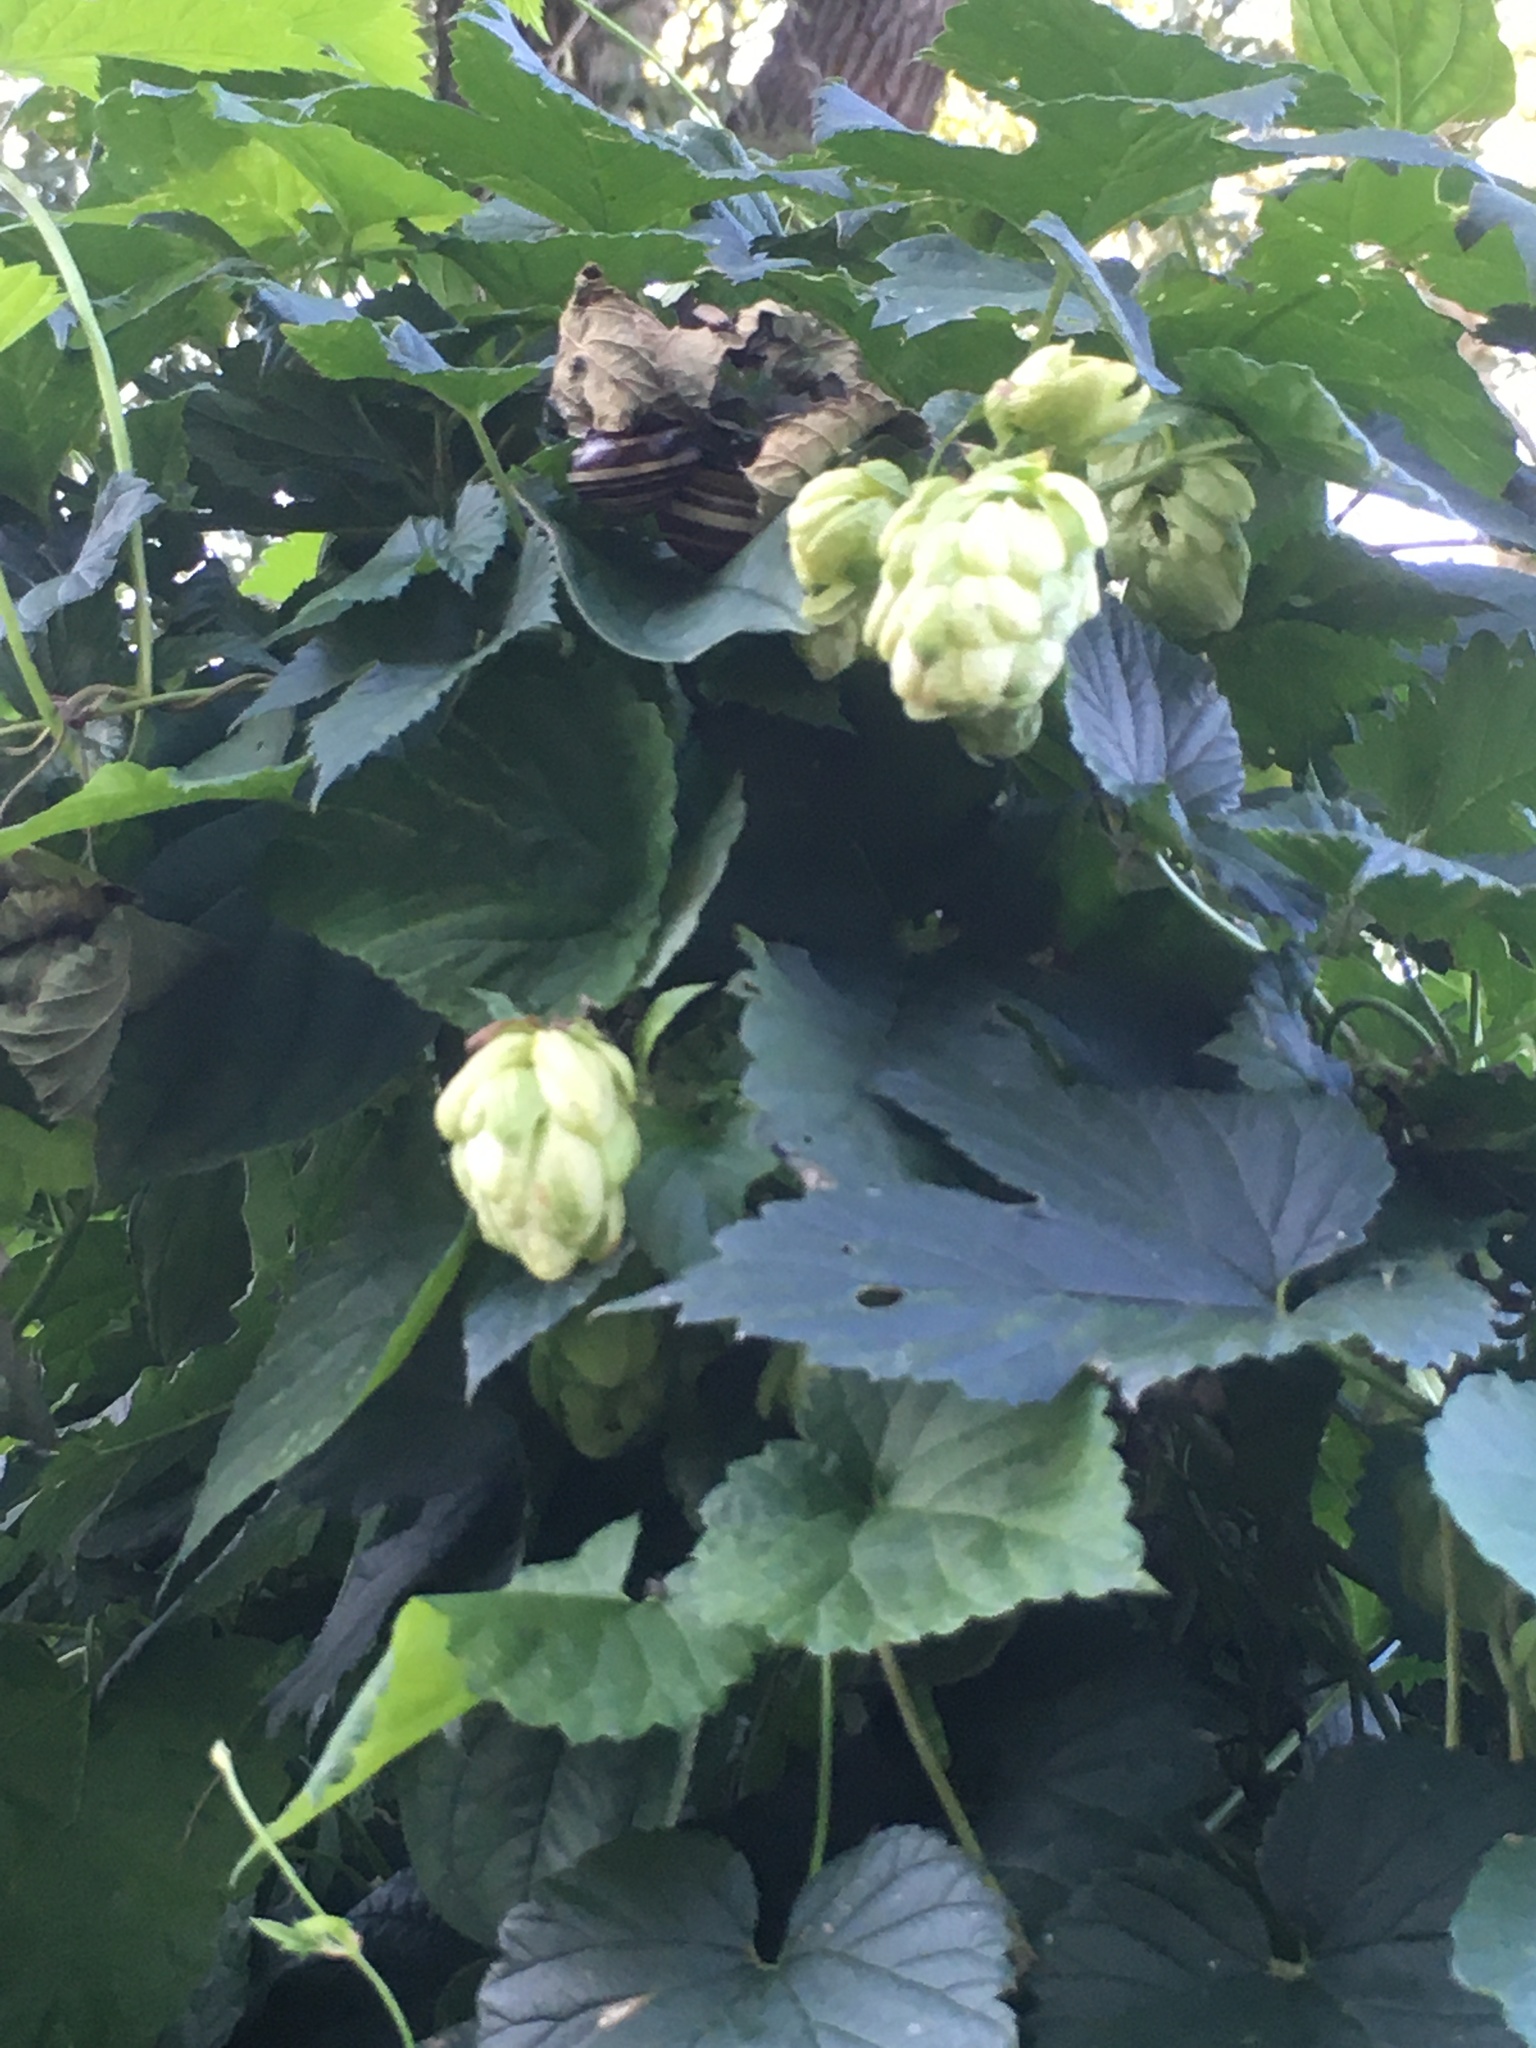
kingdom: Plantae
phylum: Tracheophyta
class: Magnoliopsida
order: Rosales
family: Cannabaceae
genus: Humulus
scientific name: Humulus lupulus
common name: Hop
